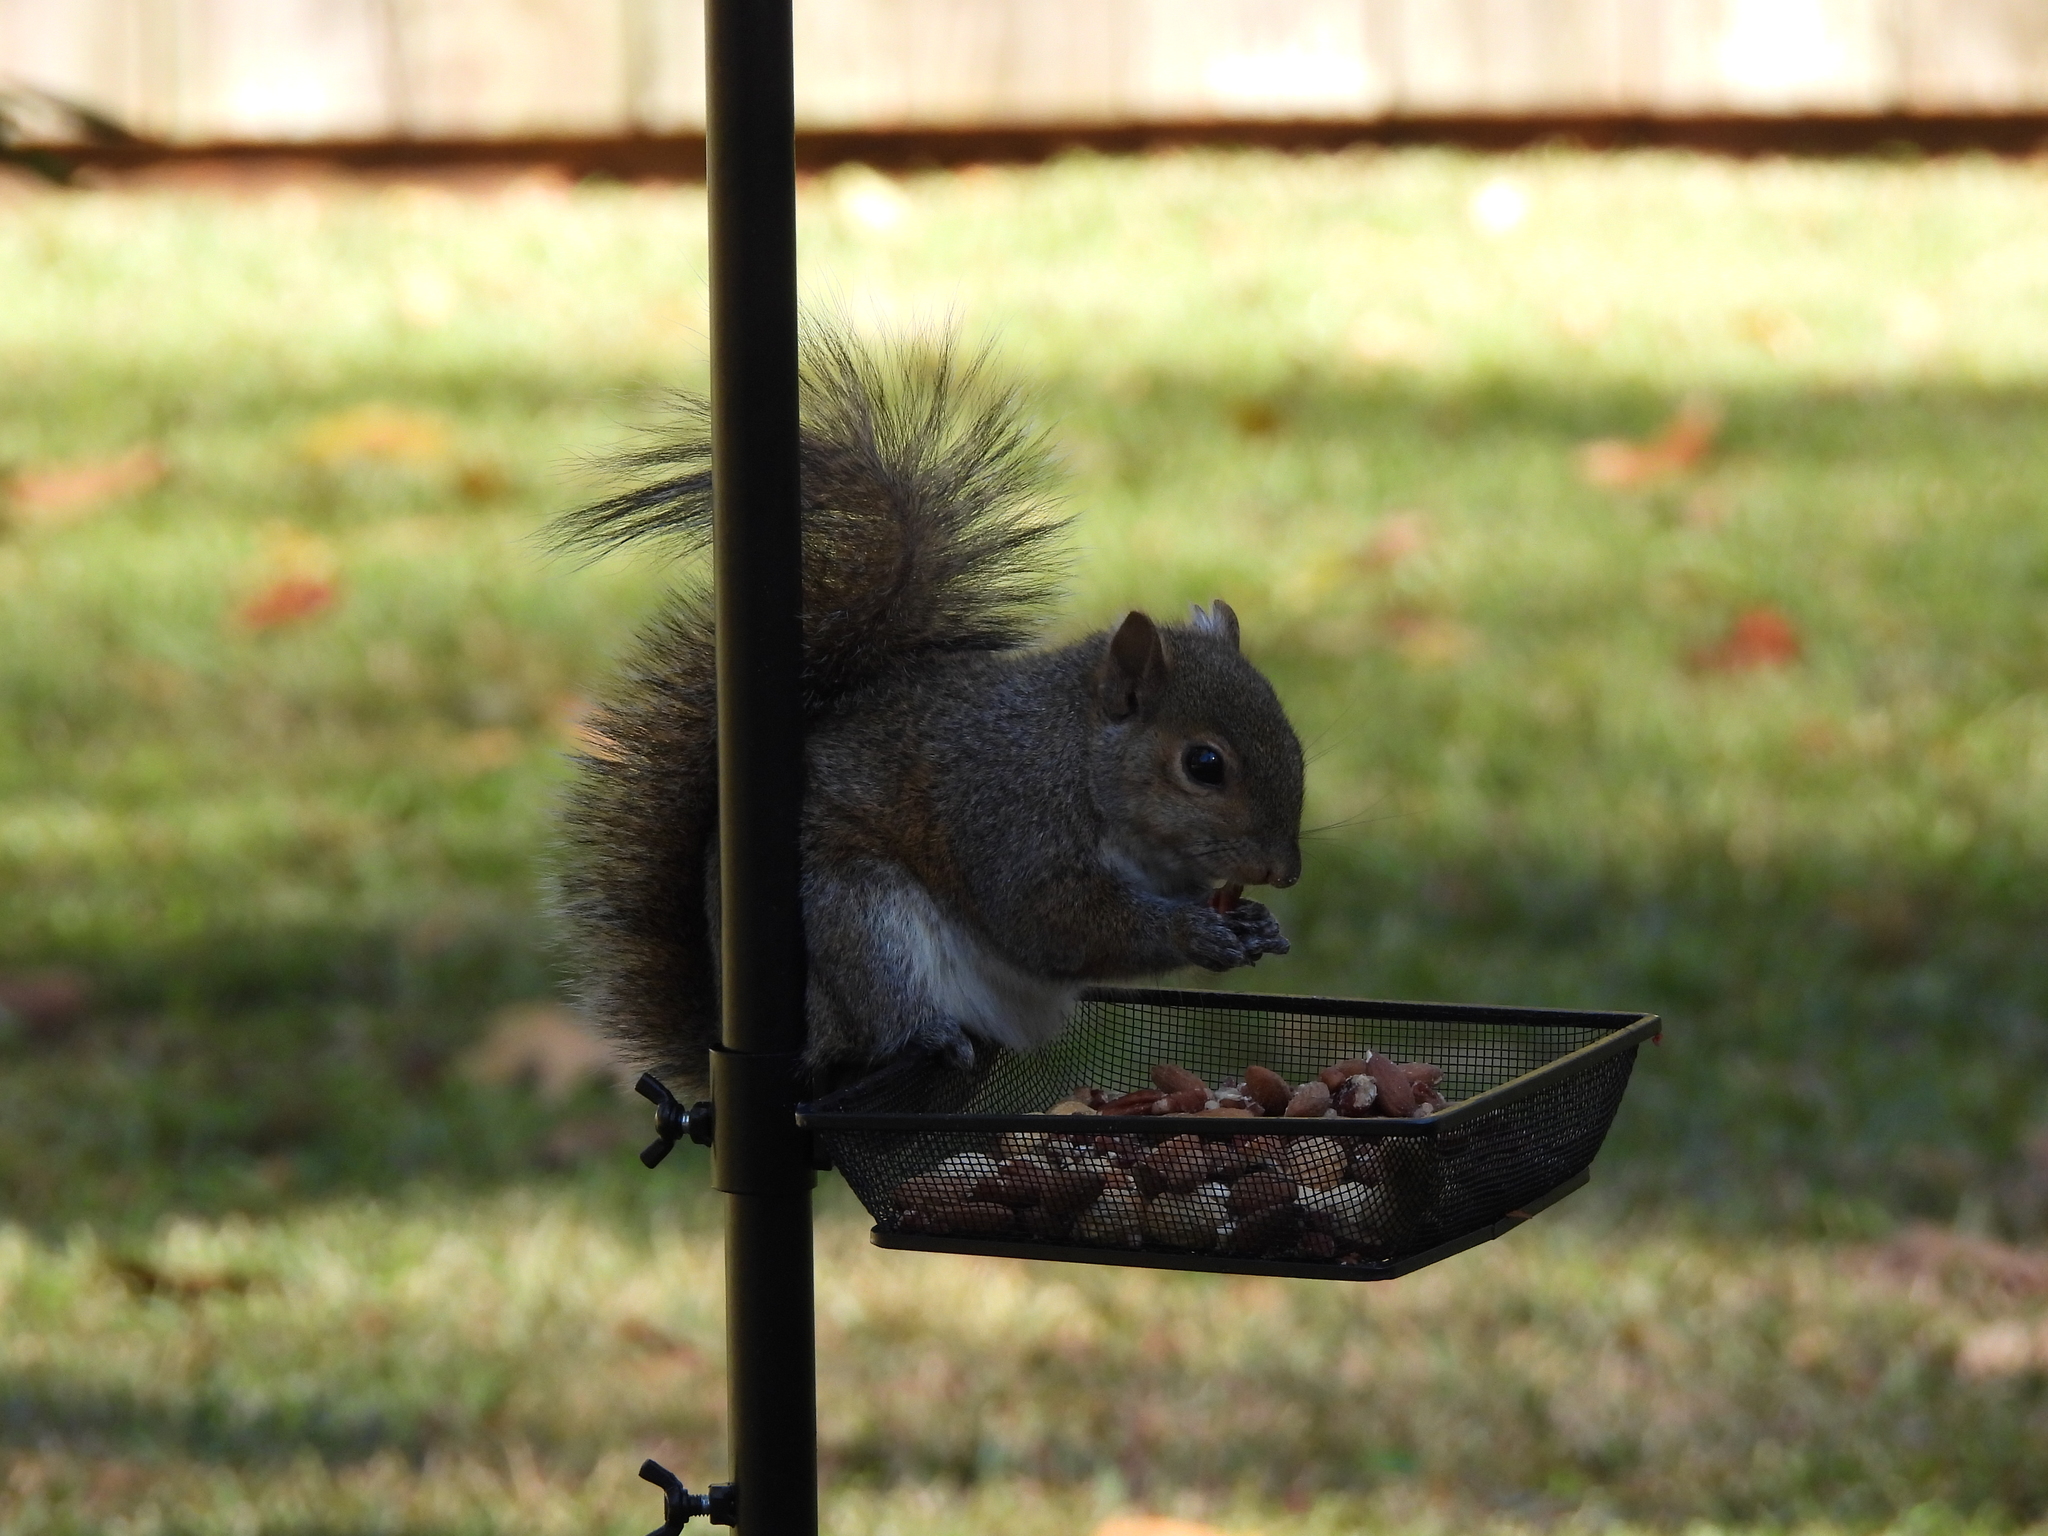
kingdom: Animalia
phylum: Chordata
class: Mammalia
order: Rodentia
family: Sciuridae
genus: Sciurus
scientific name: Sciurus carolinensis
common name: Eastern gray squirrel
